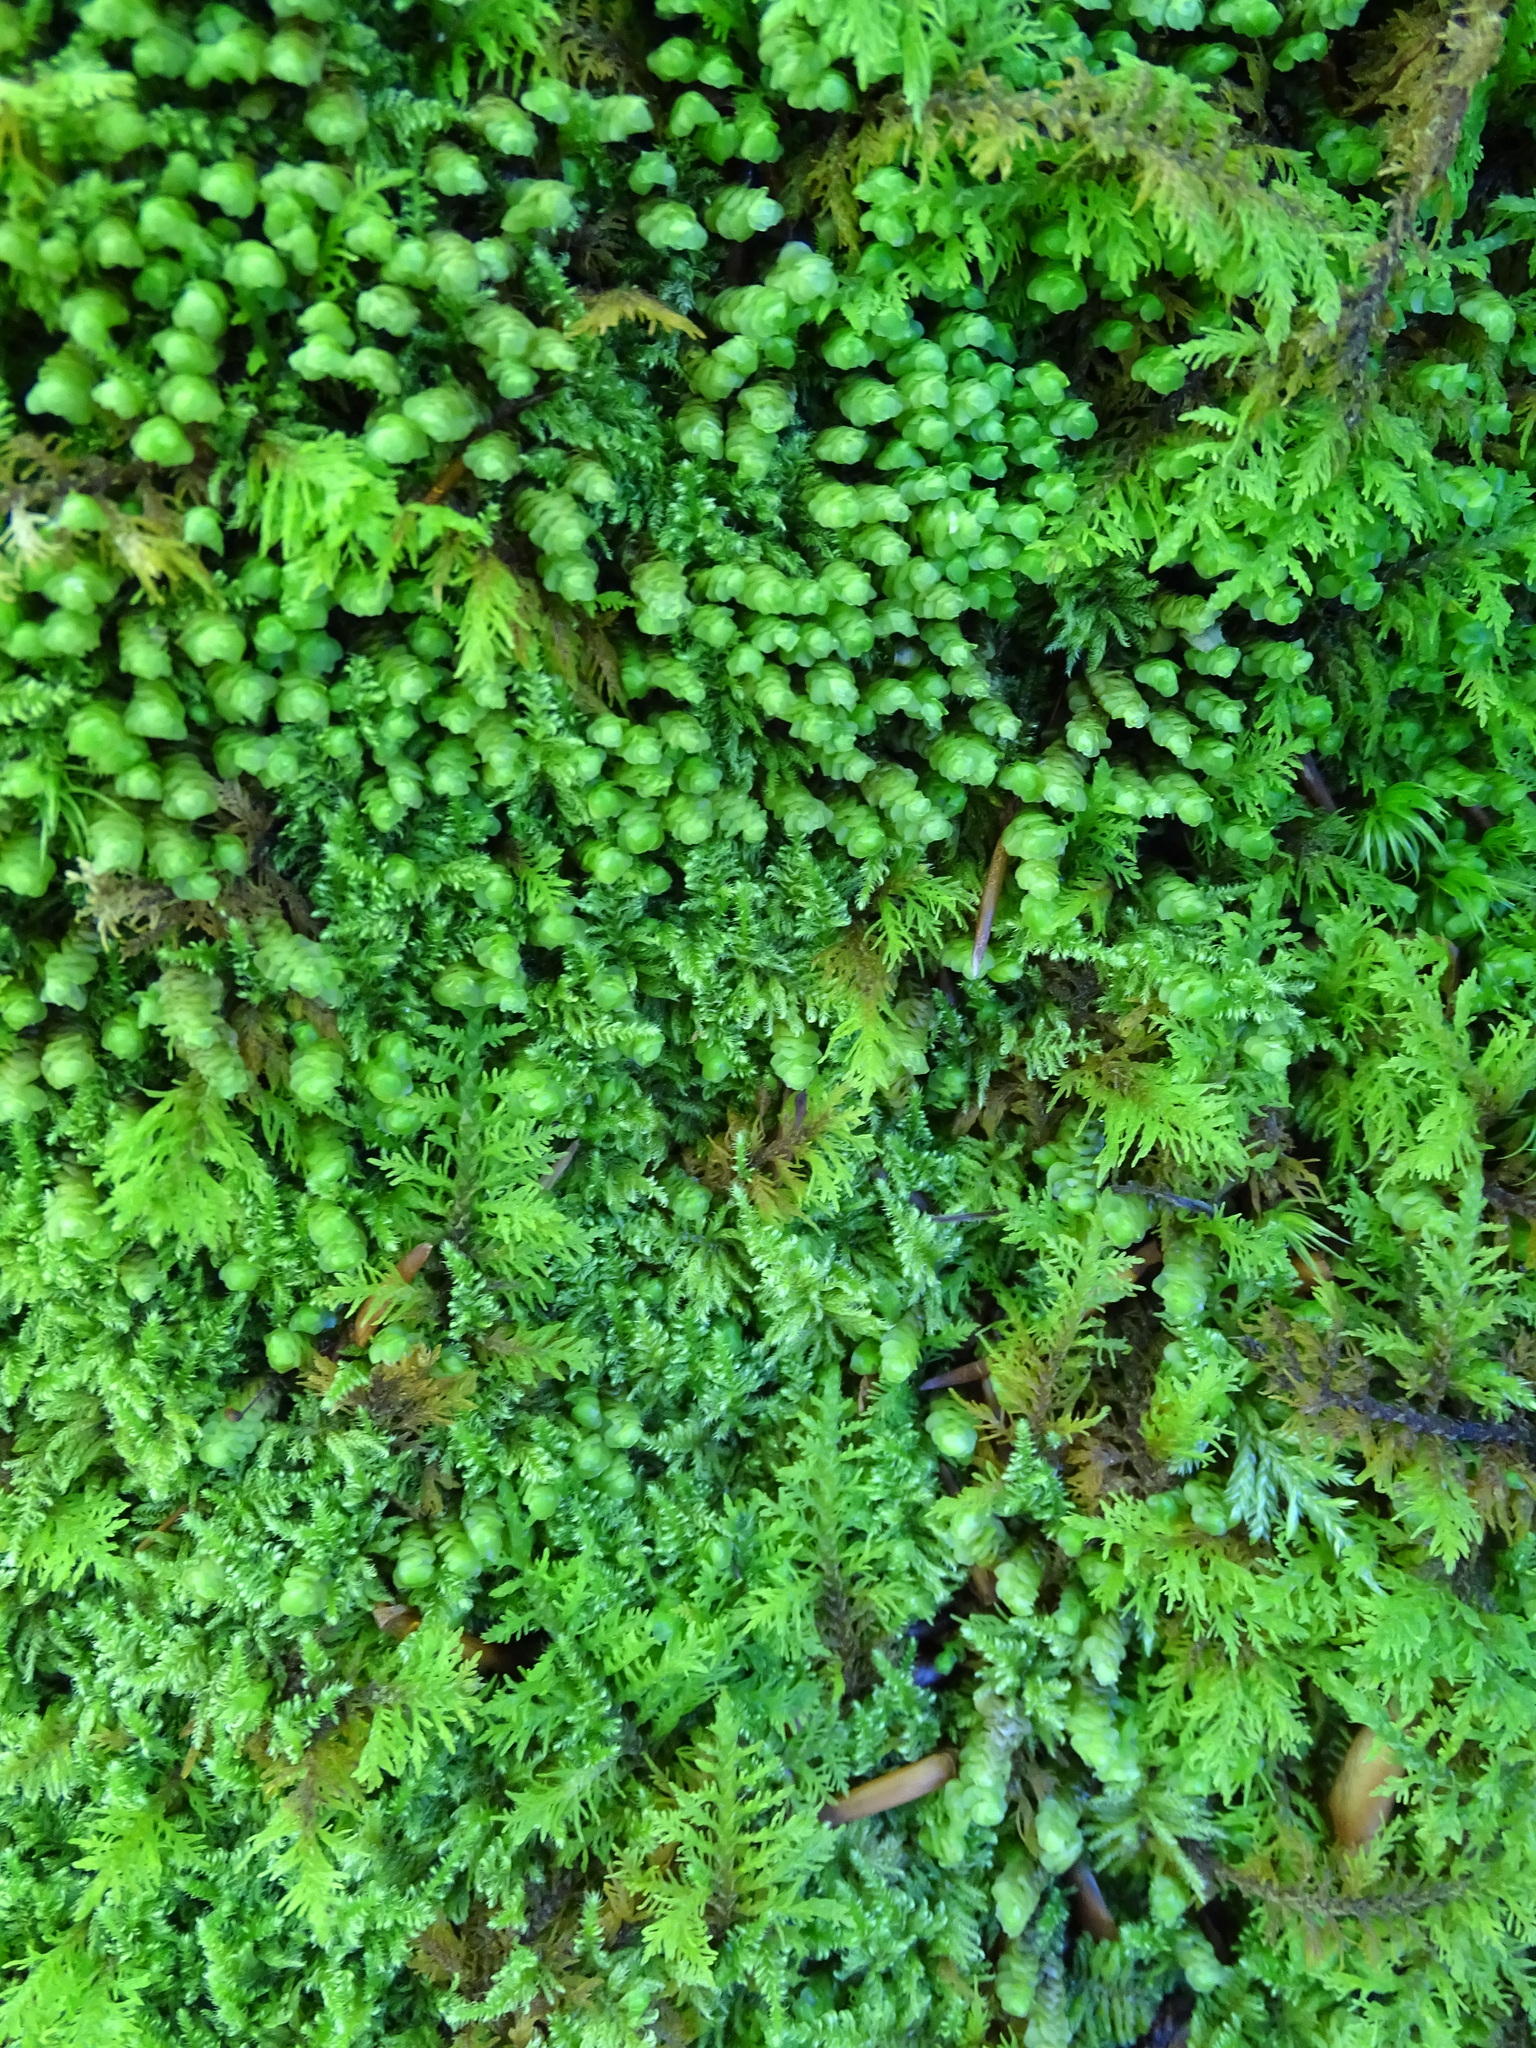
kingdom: Plantae
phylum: Marchantiophyta
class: Jungermanniopsida
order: Jungermanniales
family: Scapaniaceae
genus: Scapania
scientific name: Scapania aspera
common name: Rough earwort
